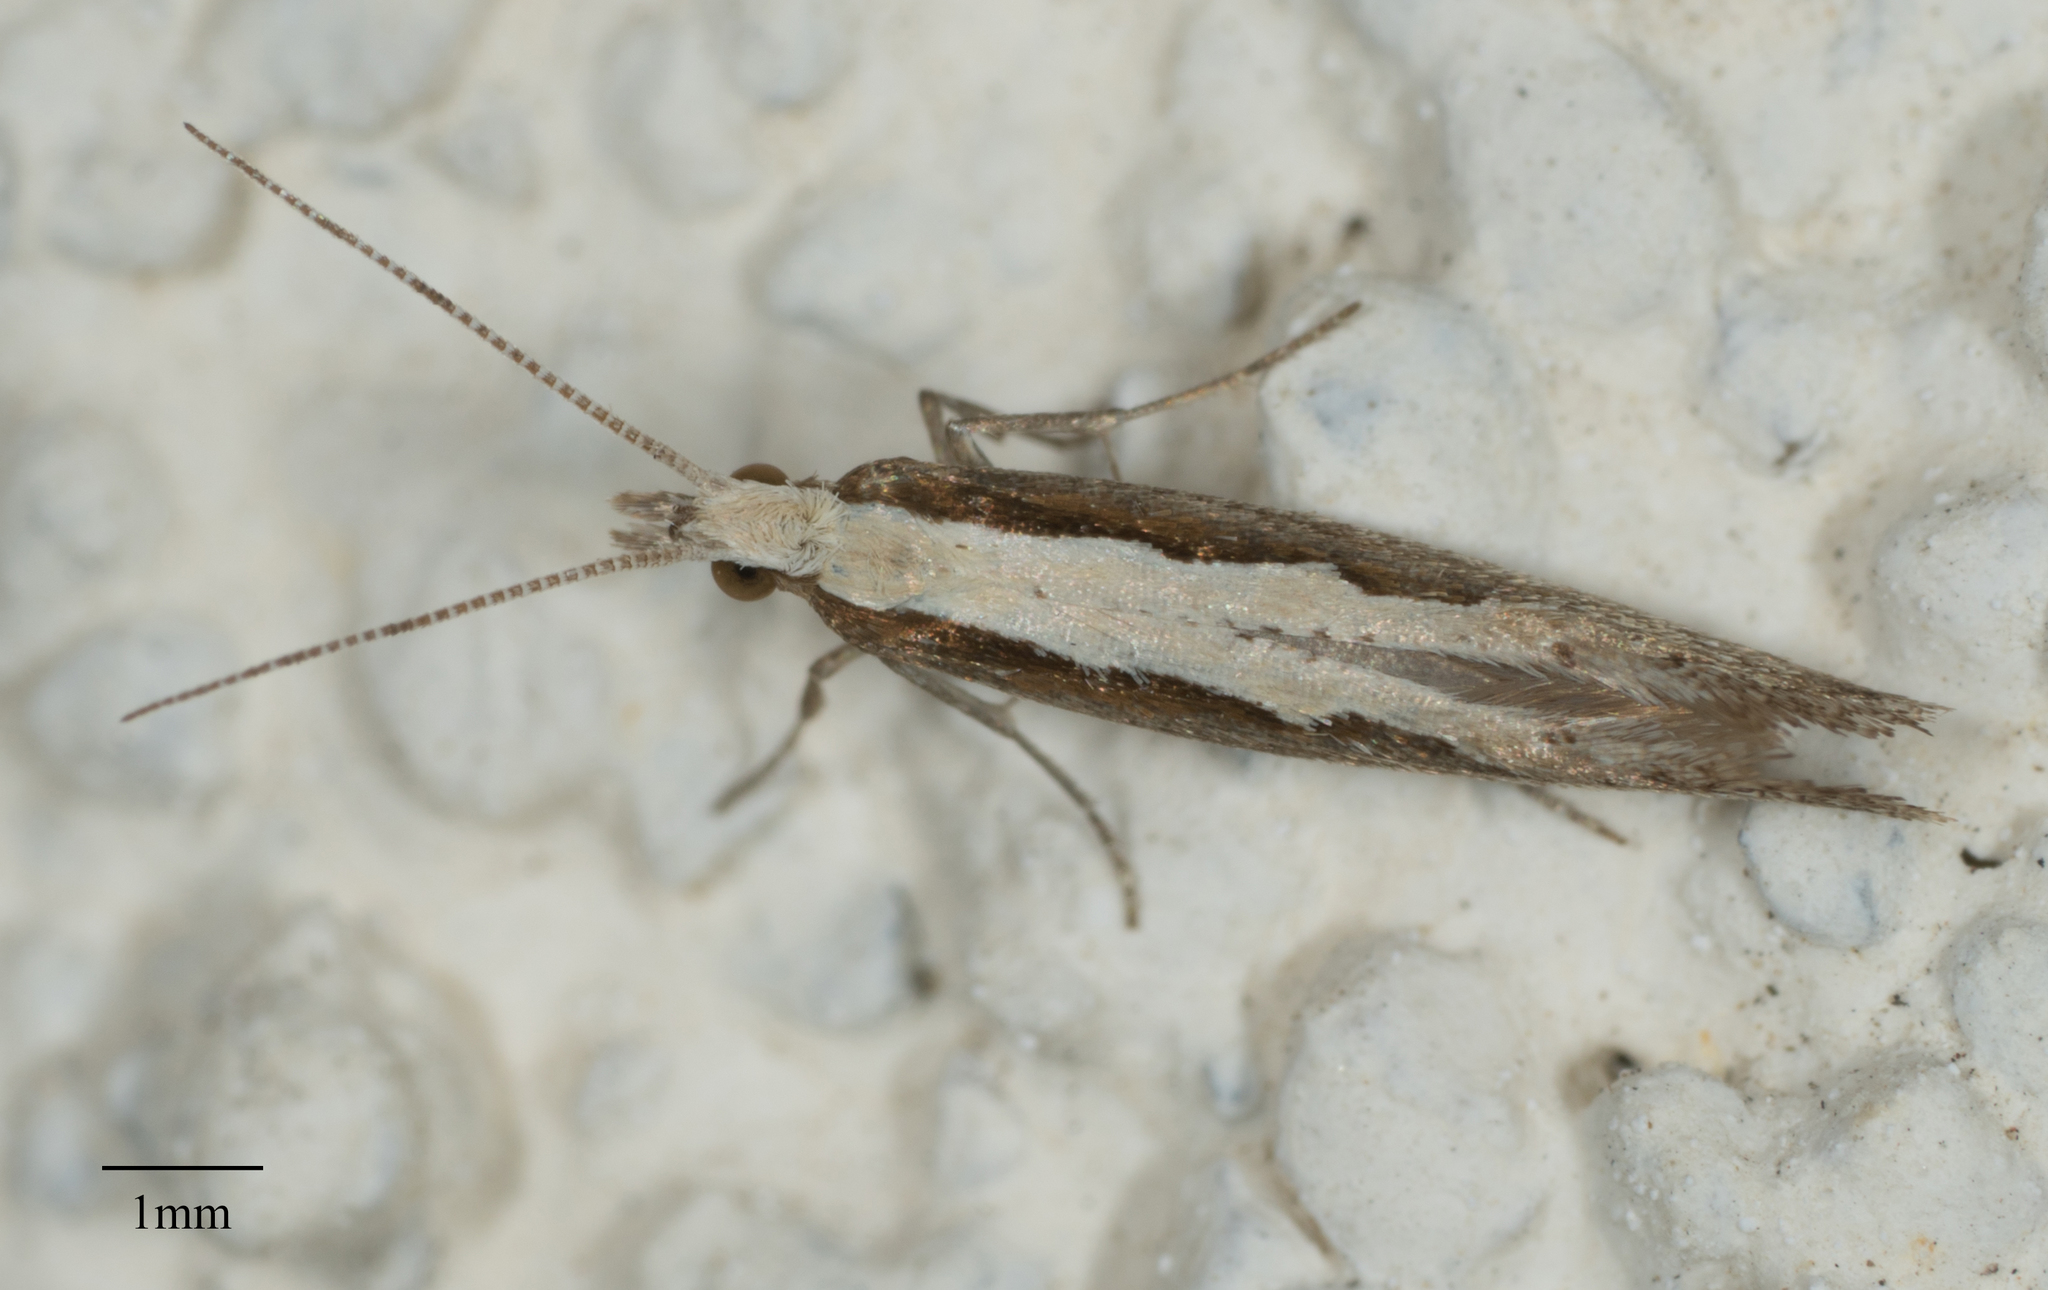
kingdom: Animalia
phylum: Arthropoda
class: Insecta
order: Lepidoptera
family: Plutellidae
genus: Plutella
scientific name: Plutella xylostella
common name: Diamond-back moth
